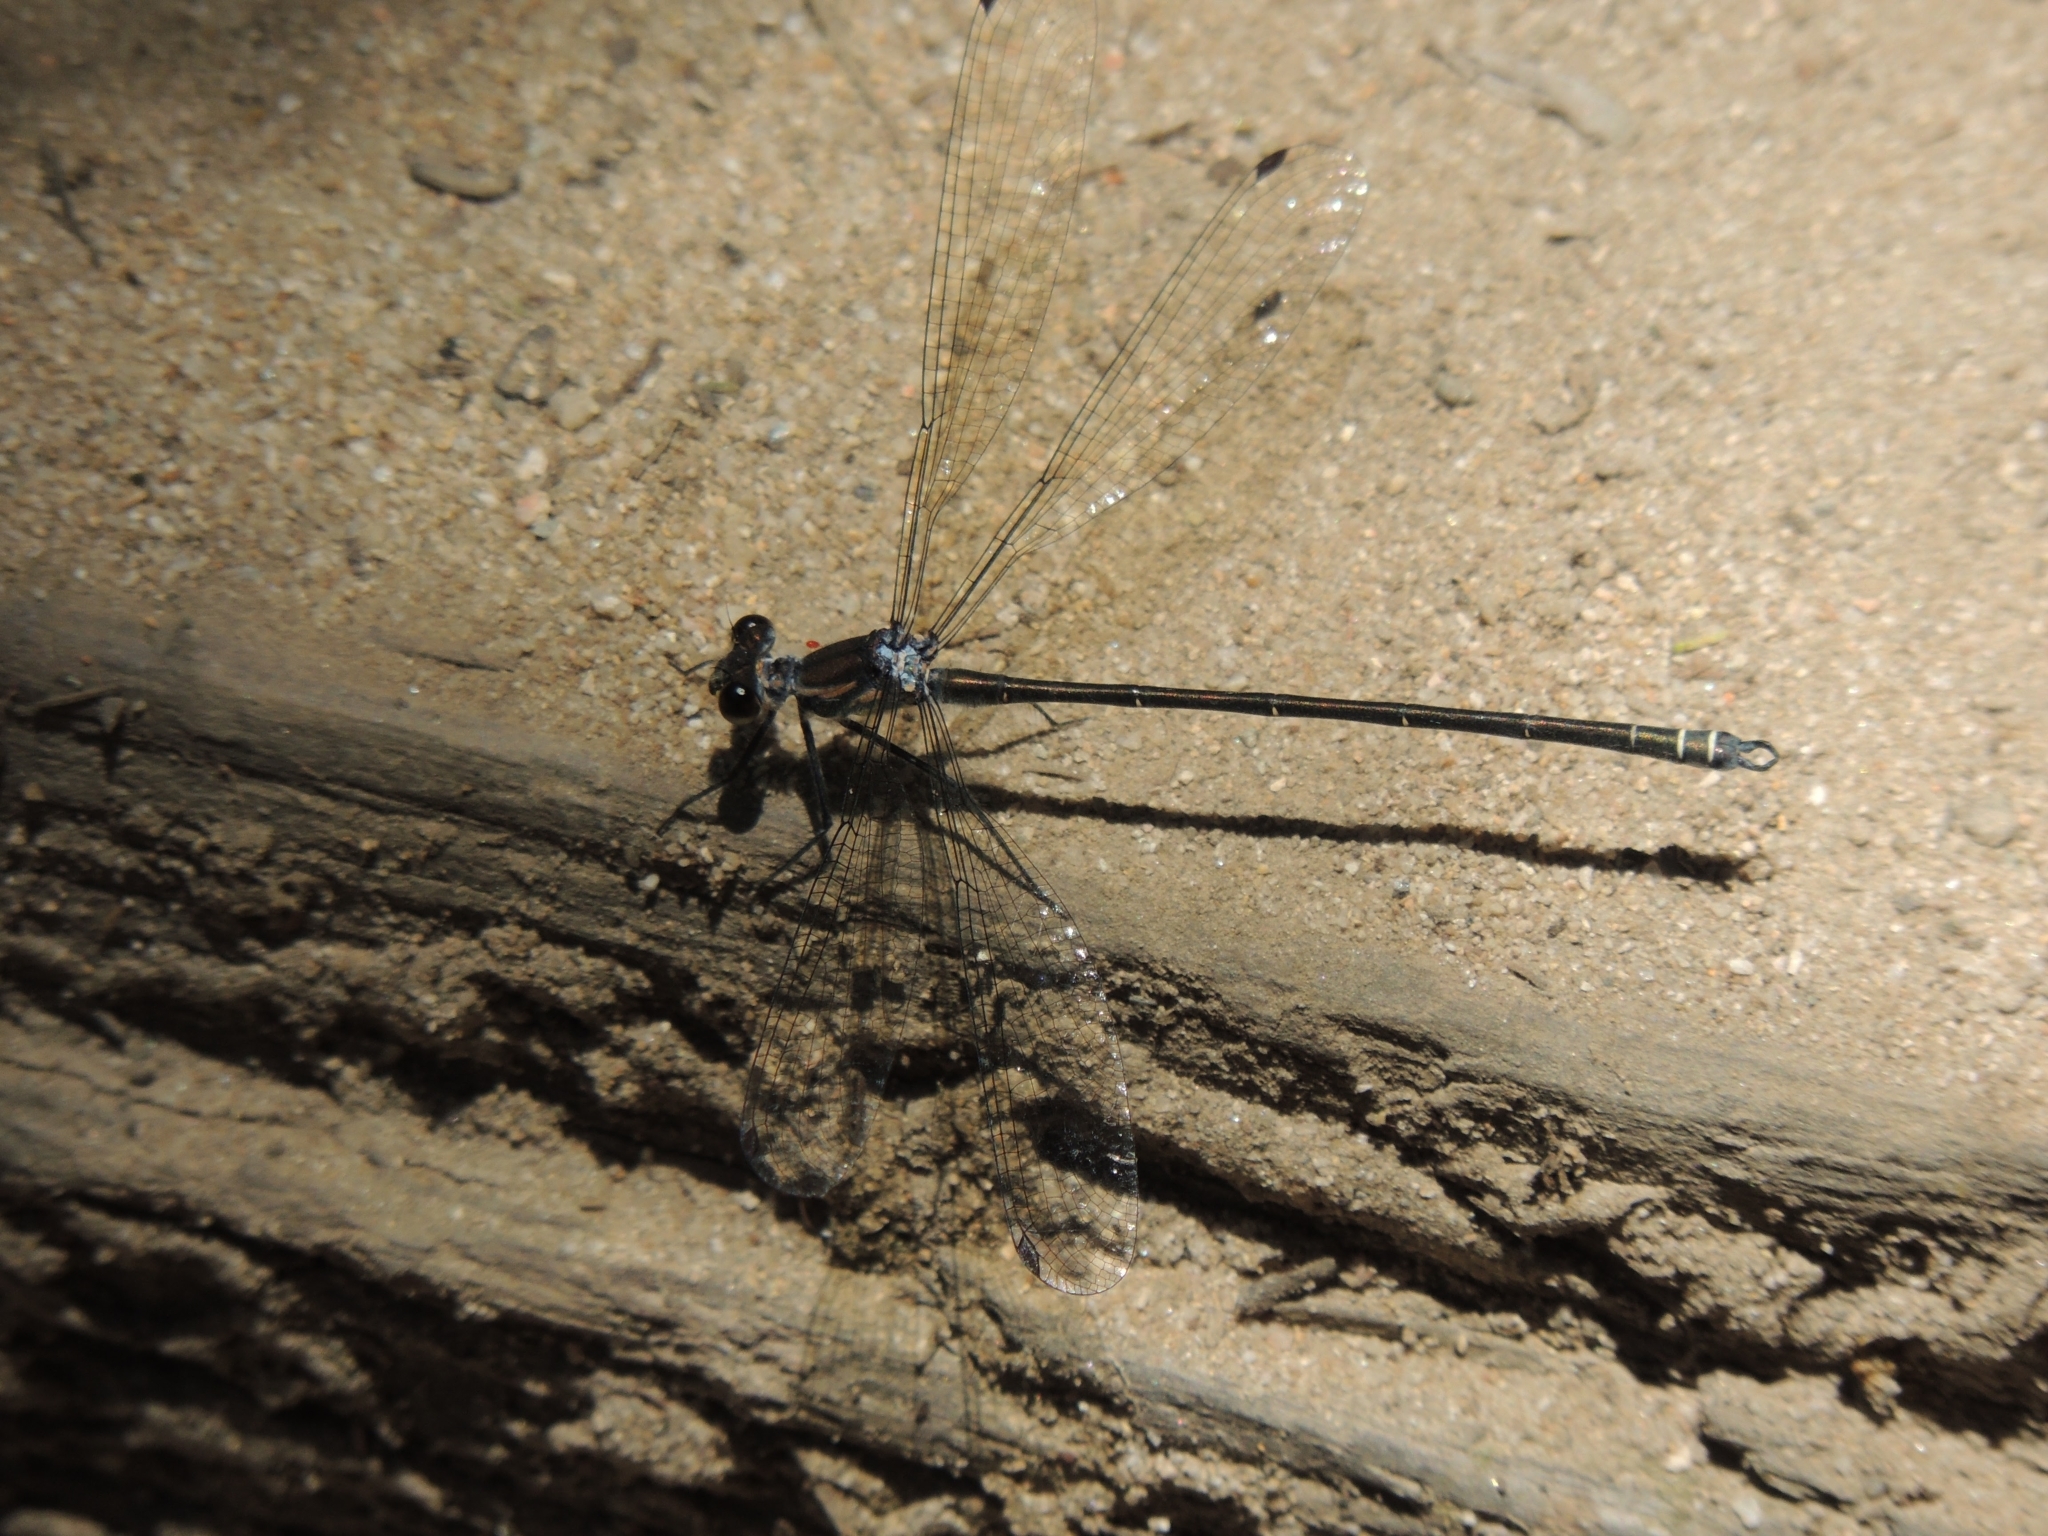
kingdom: Animalia
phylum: Arthropoda
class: Insecta
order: Odonata
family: Argiolestidae
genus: Austroargiolestes
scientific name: Austroargiolestes icteromelas
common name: Common flatwing
